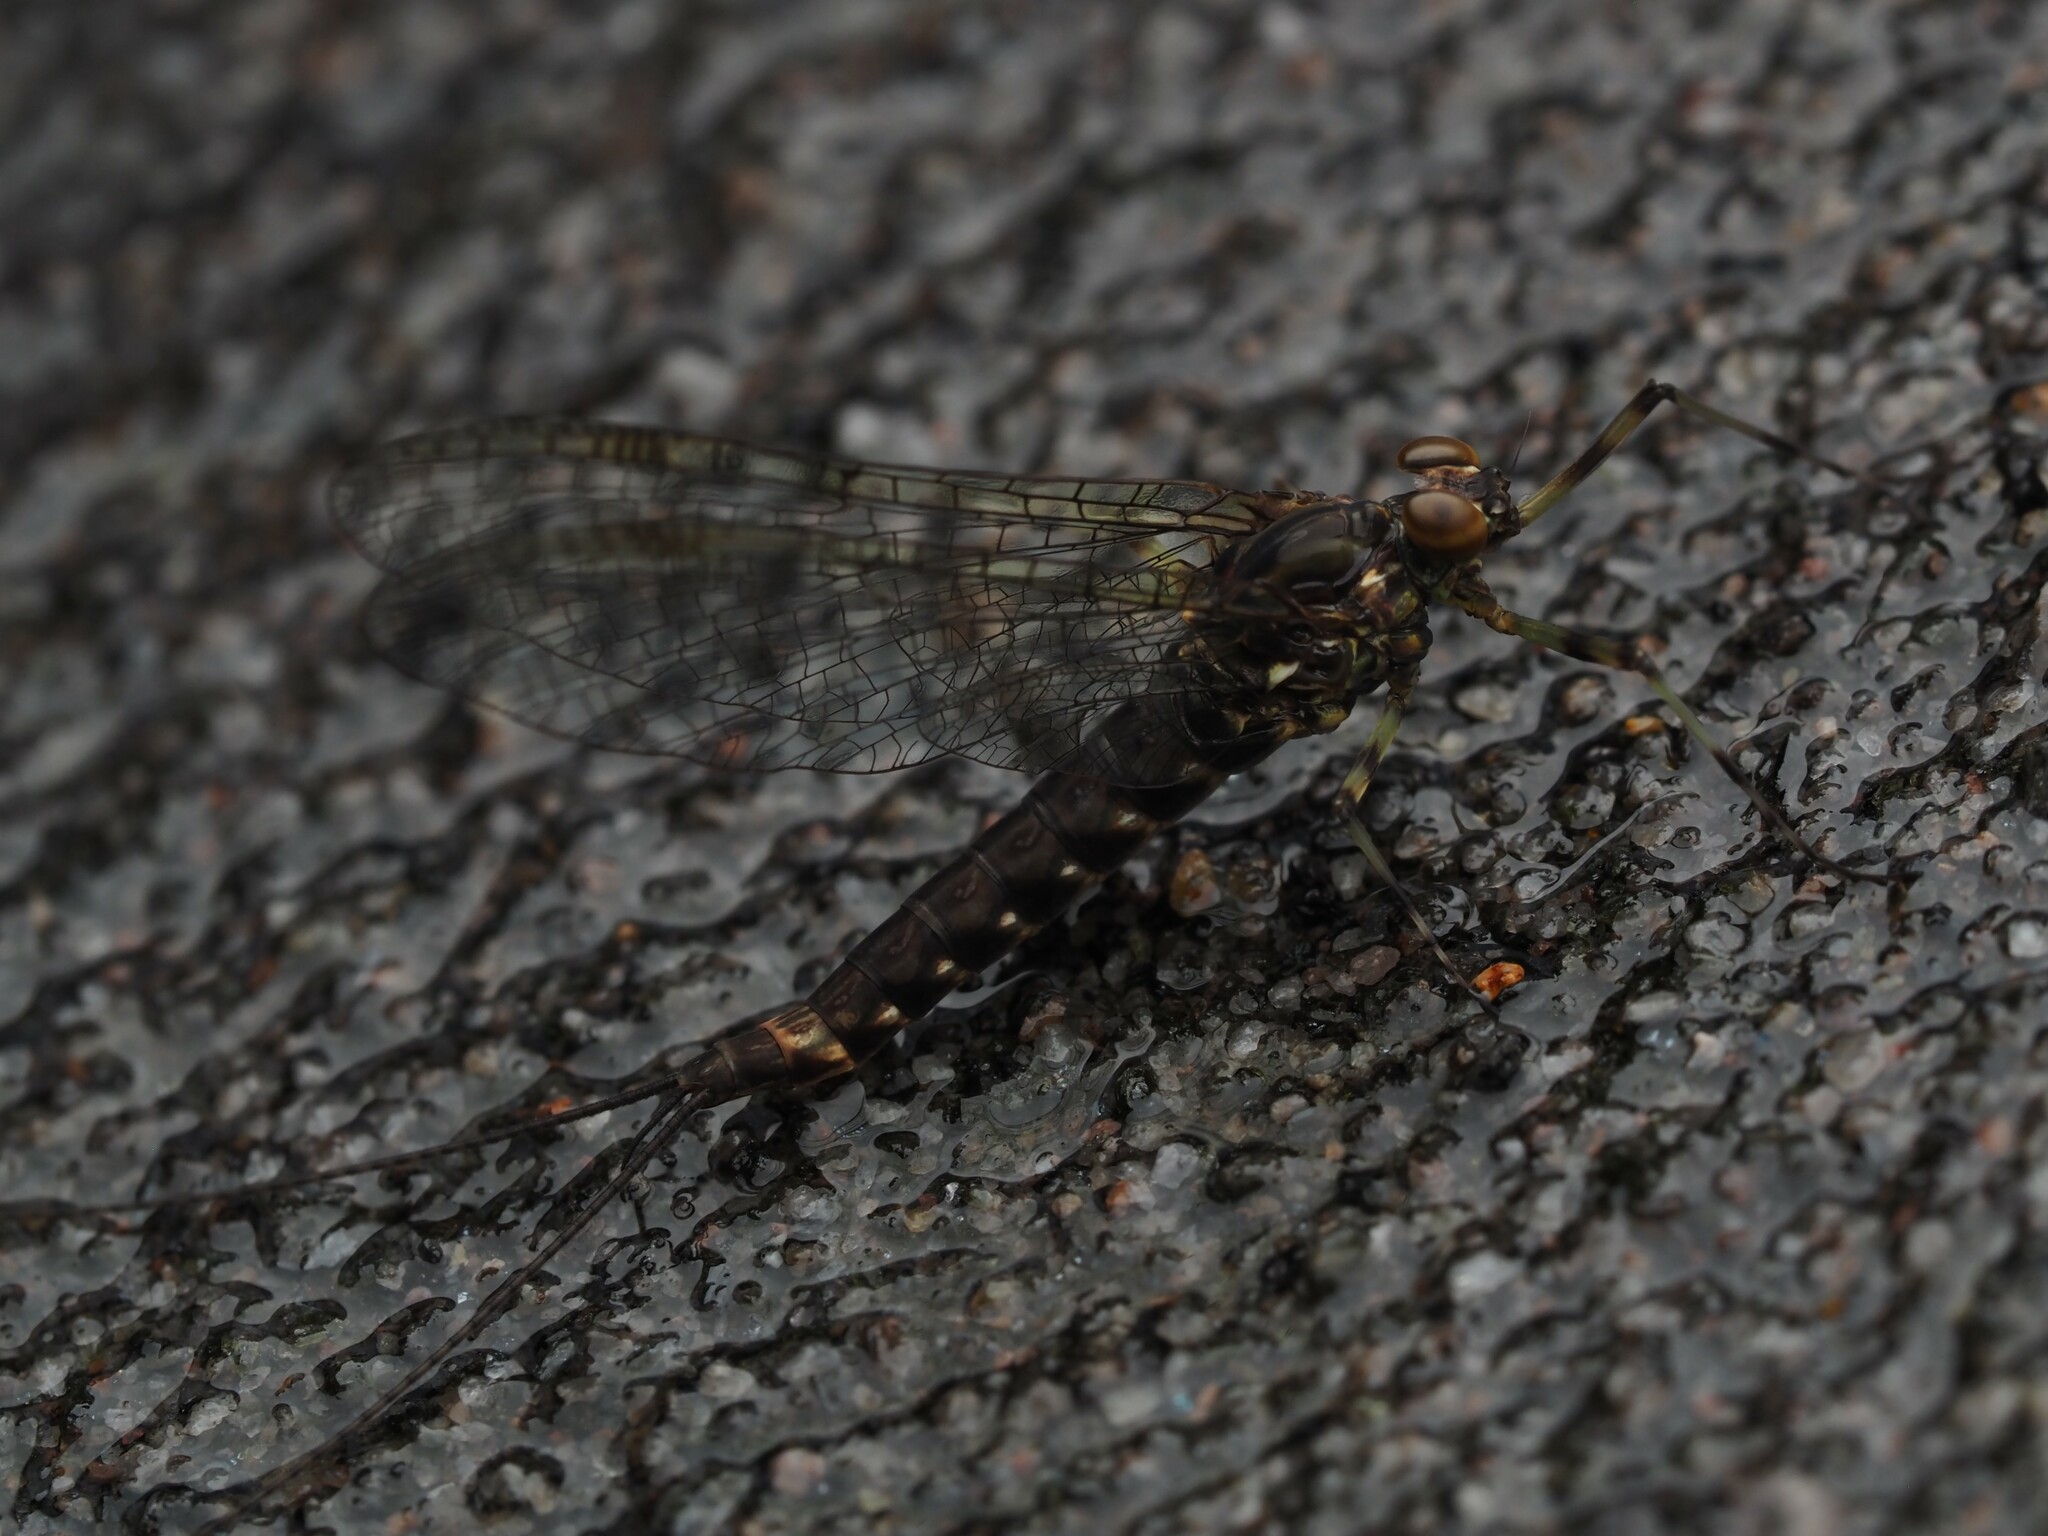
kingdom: Animalia
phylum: Arthropoda
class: Insecta
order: Ephemeroptera
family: Nesameletidae
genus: Nesameletus
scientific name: Nesameletus ornatus
